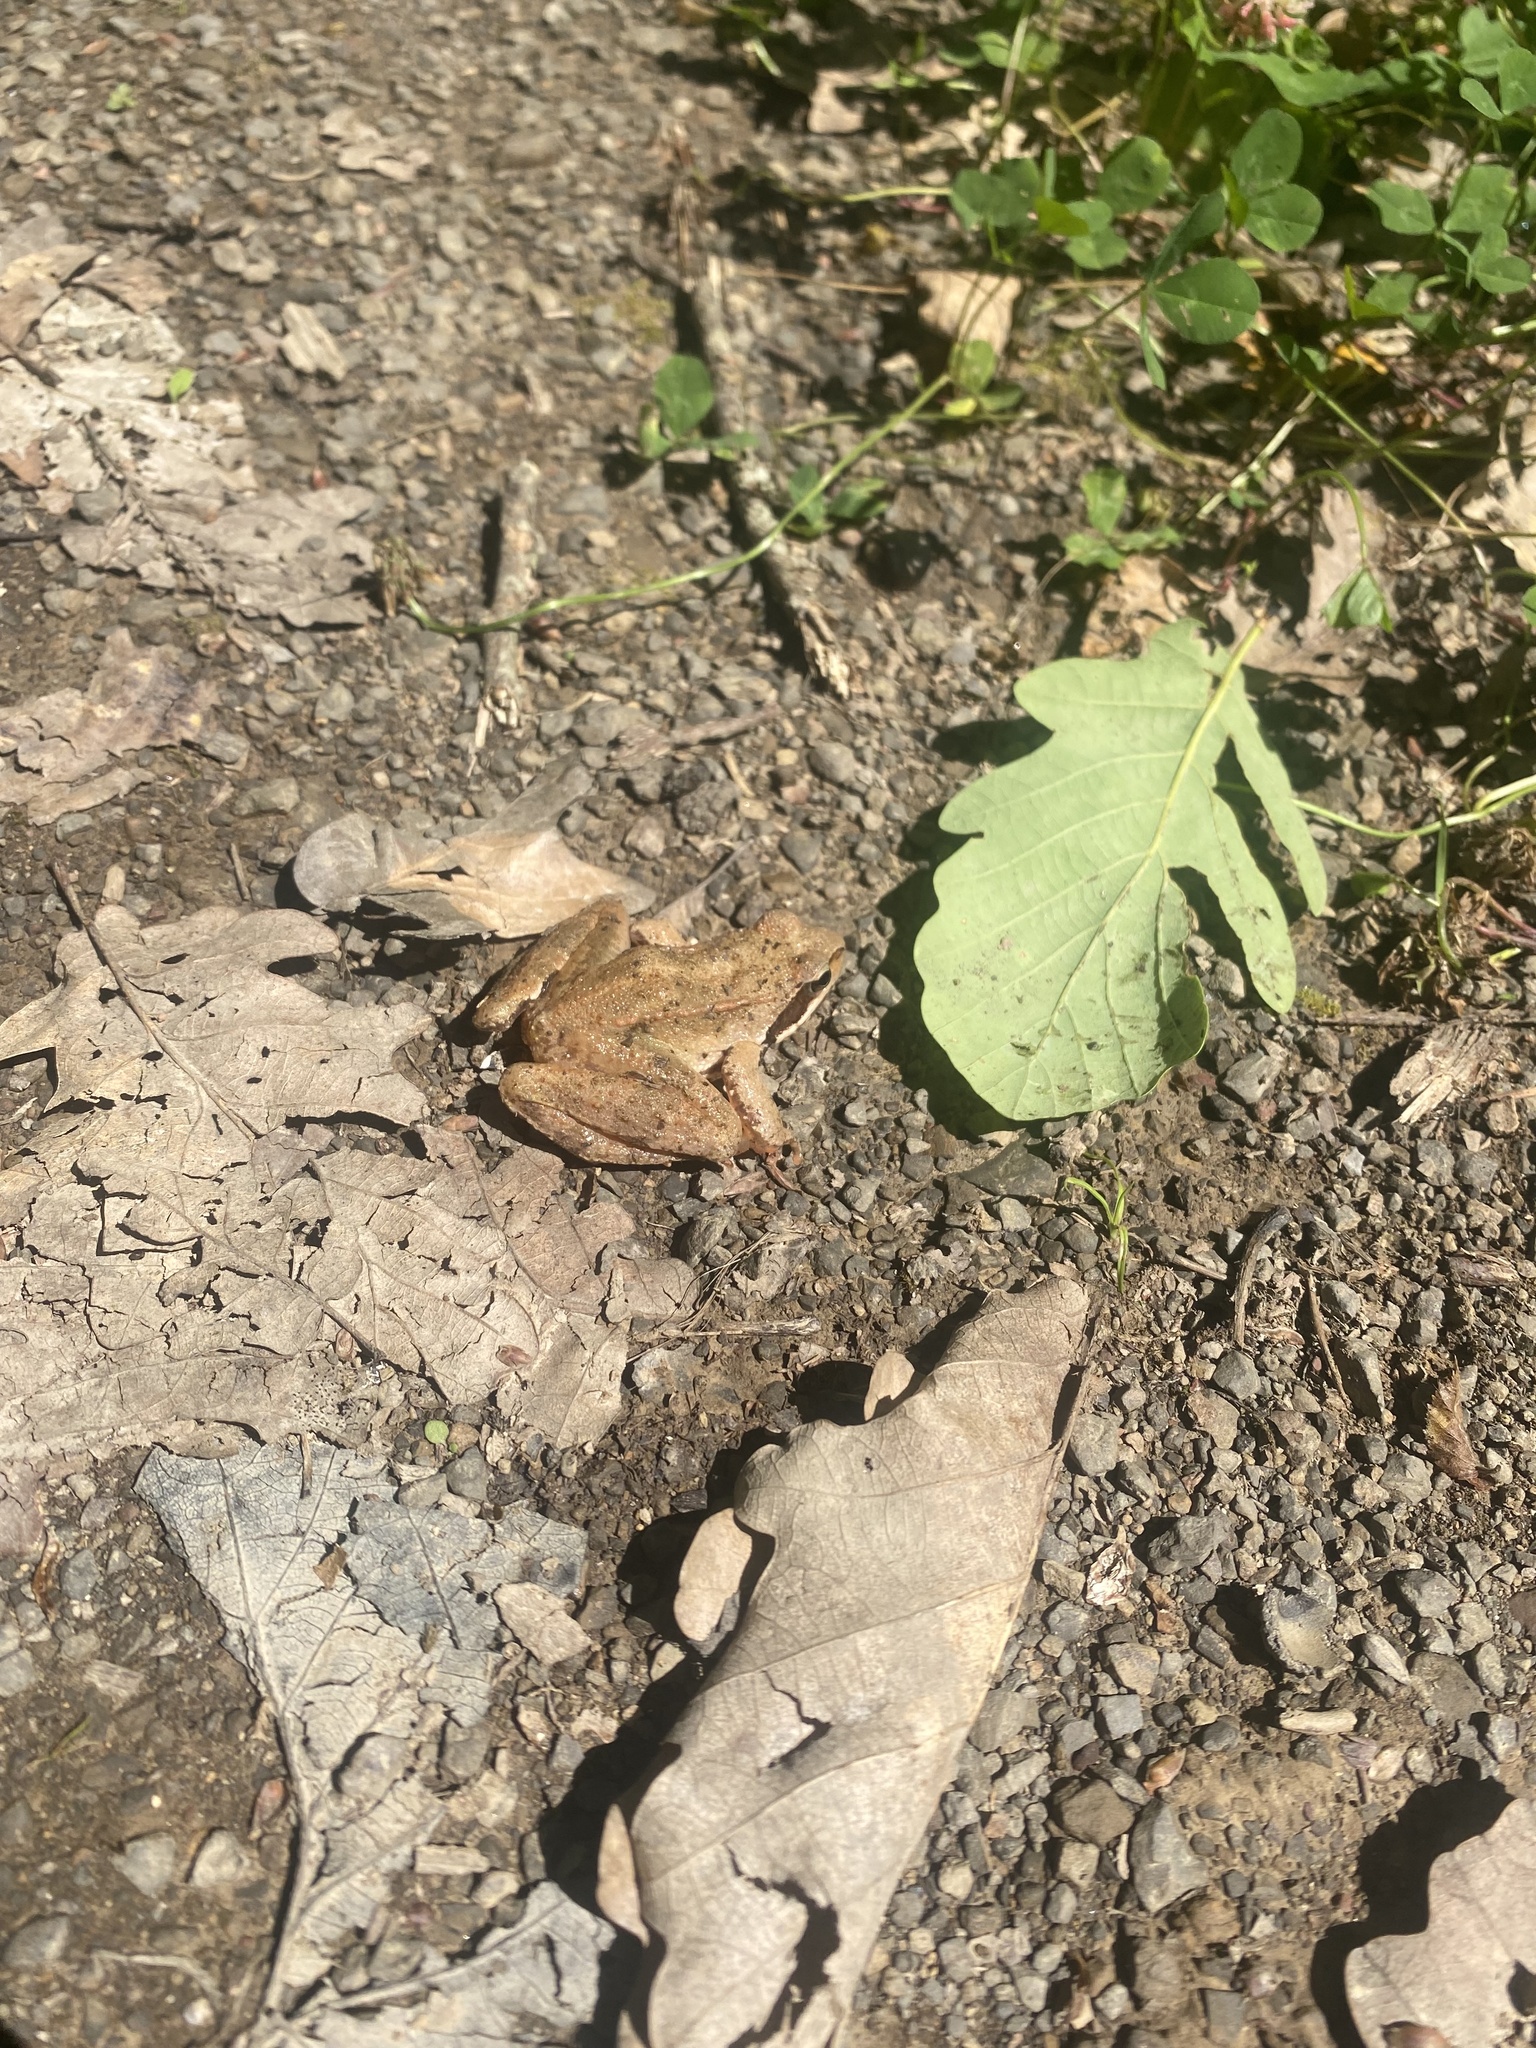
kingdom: Animalia
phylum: Chordata
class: Amphibia
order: Anura
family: Ranidae
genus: Rana
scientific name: Rana macrocnemis
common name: Banded frog
